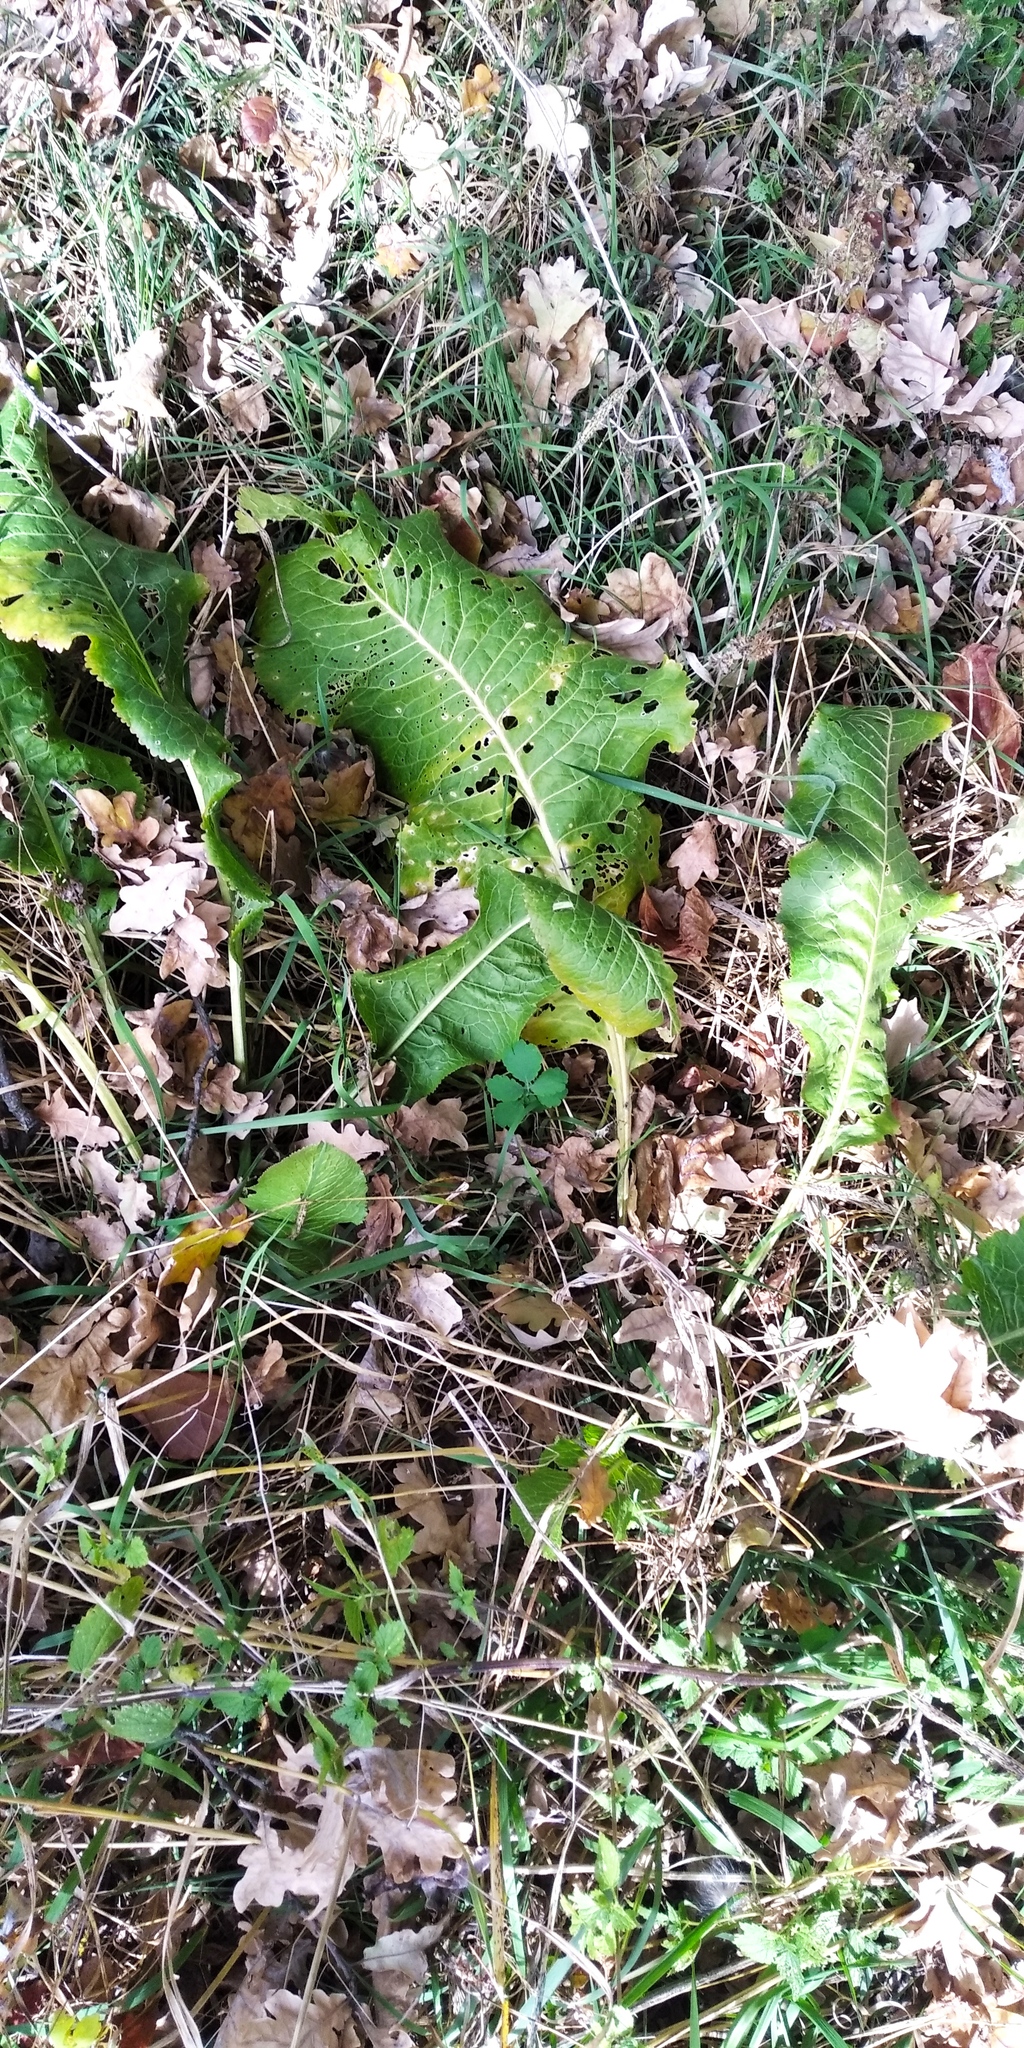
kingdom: Plantae
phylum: Tracheophyta
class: Magnoliopsida
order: Brassicales
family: Brassicaceae
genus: Armoracia
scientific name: Armoracia rusticana
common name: Horseradish
